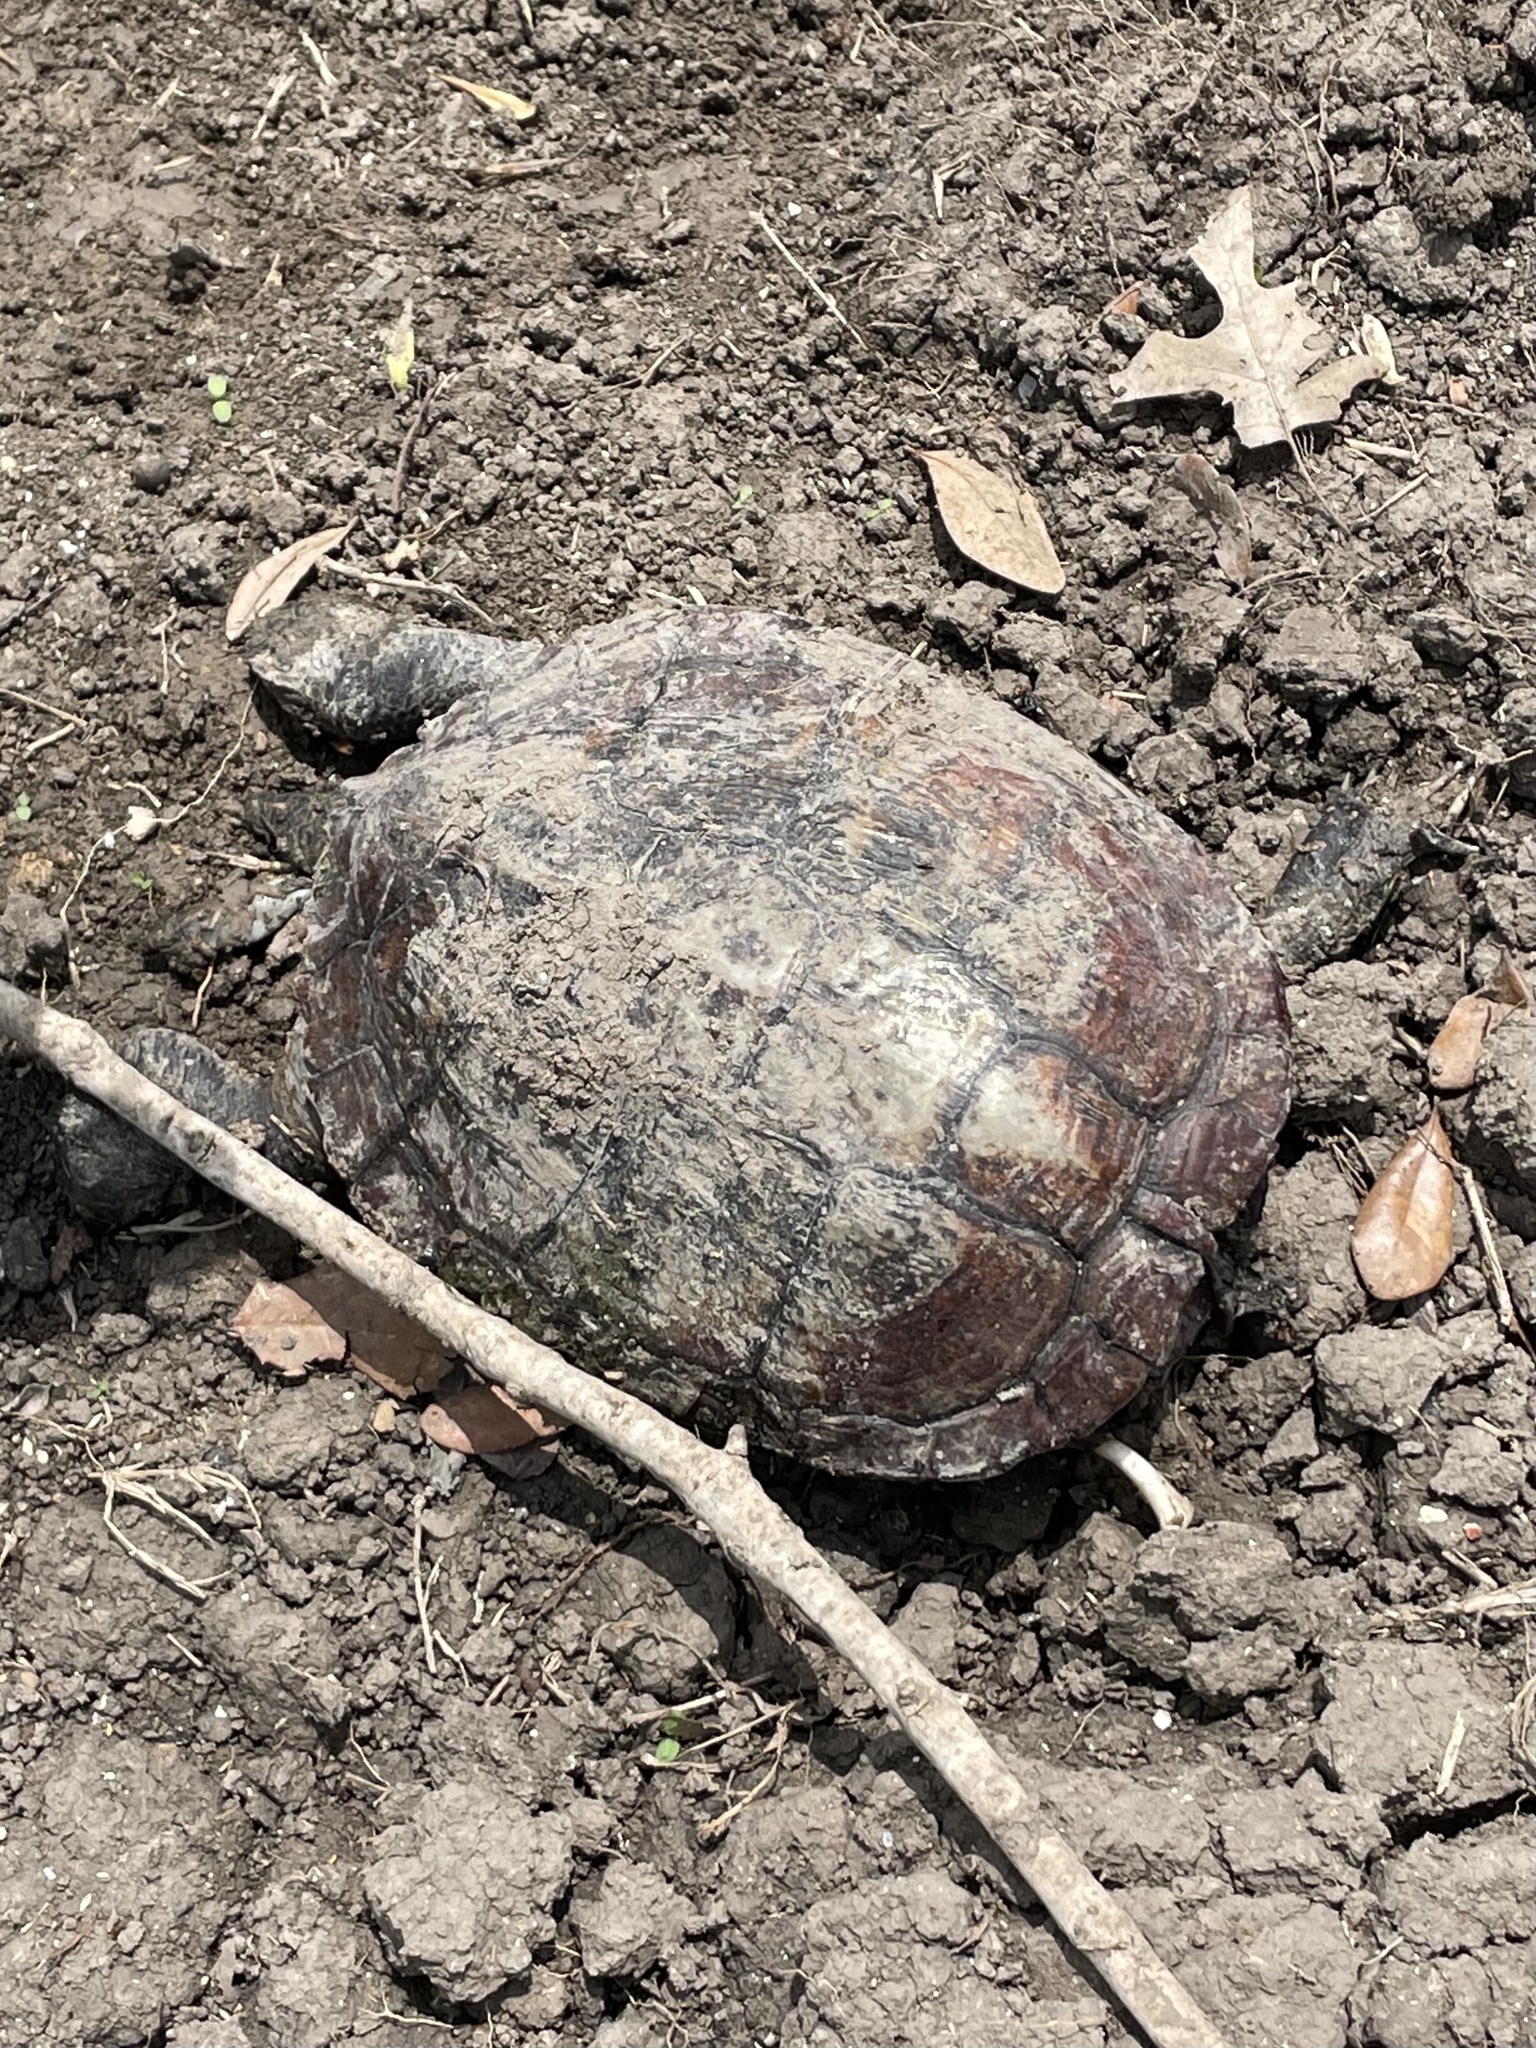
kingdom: Animalia
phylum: Chordata
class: Testudines
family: Emydidae
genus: Trachemys
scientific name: Trachemys scripta
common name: Slider
